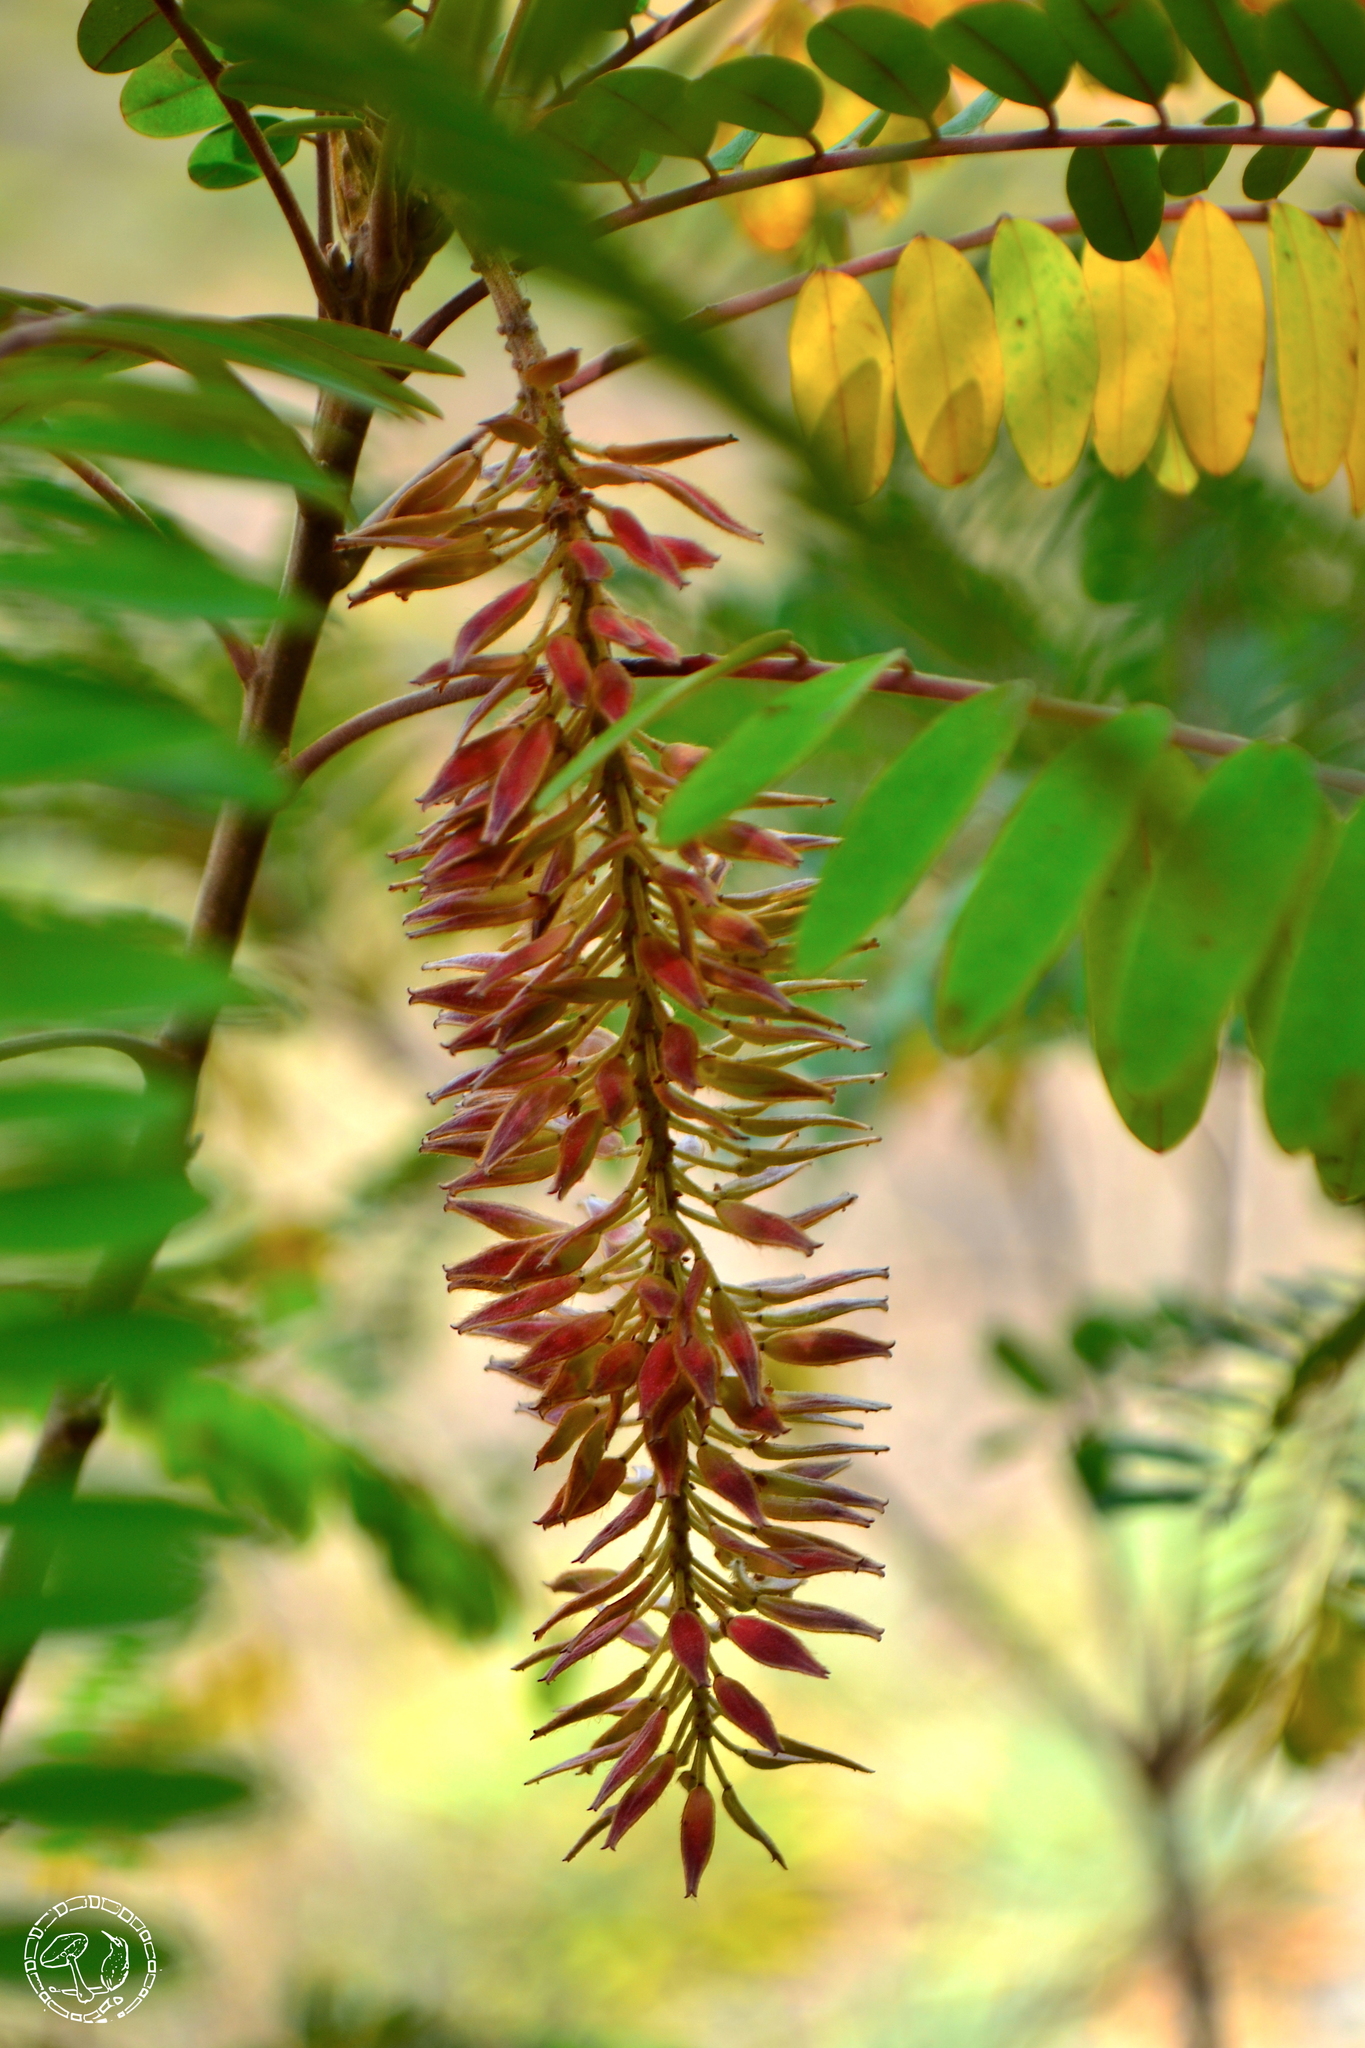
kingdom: Plantae
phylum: Tracheophyta
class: Magnoliopsida
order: Picramniales
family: Picramniaceae
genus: Alvaradoa
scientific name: Alvaradoa amorphoides
